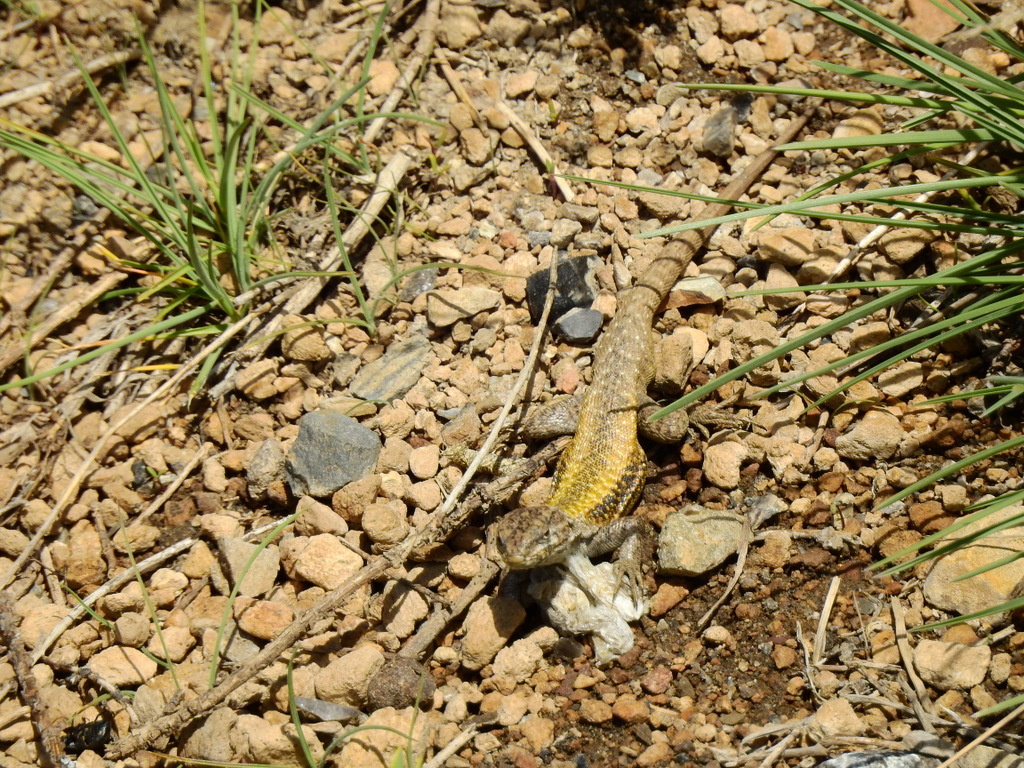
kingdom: Animalia
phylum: Chordata
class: Squamata
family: Liolaemidae
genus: Liolaemus
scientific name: Liolaemus smaug
